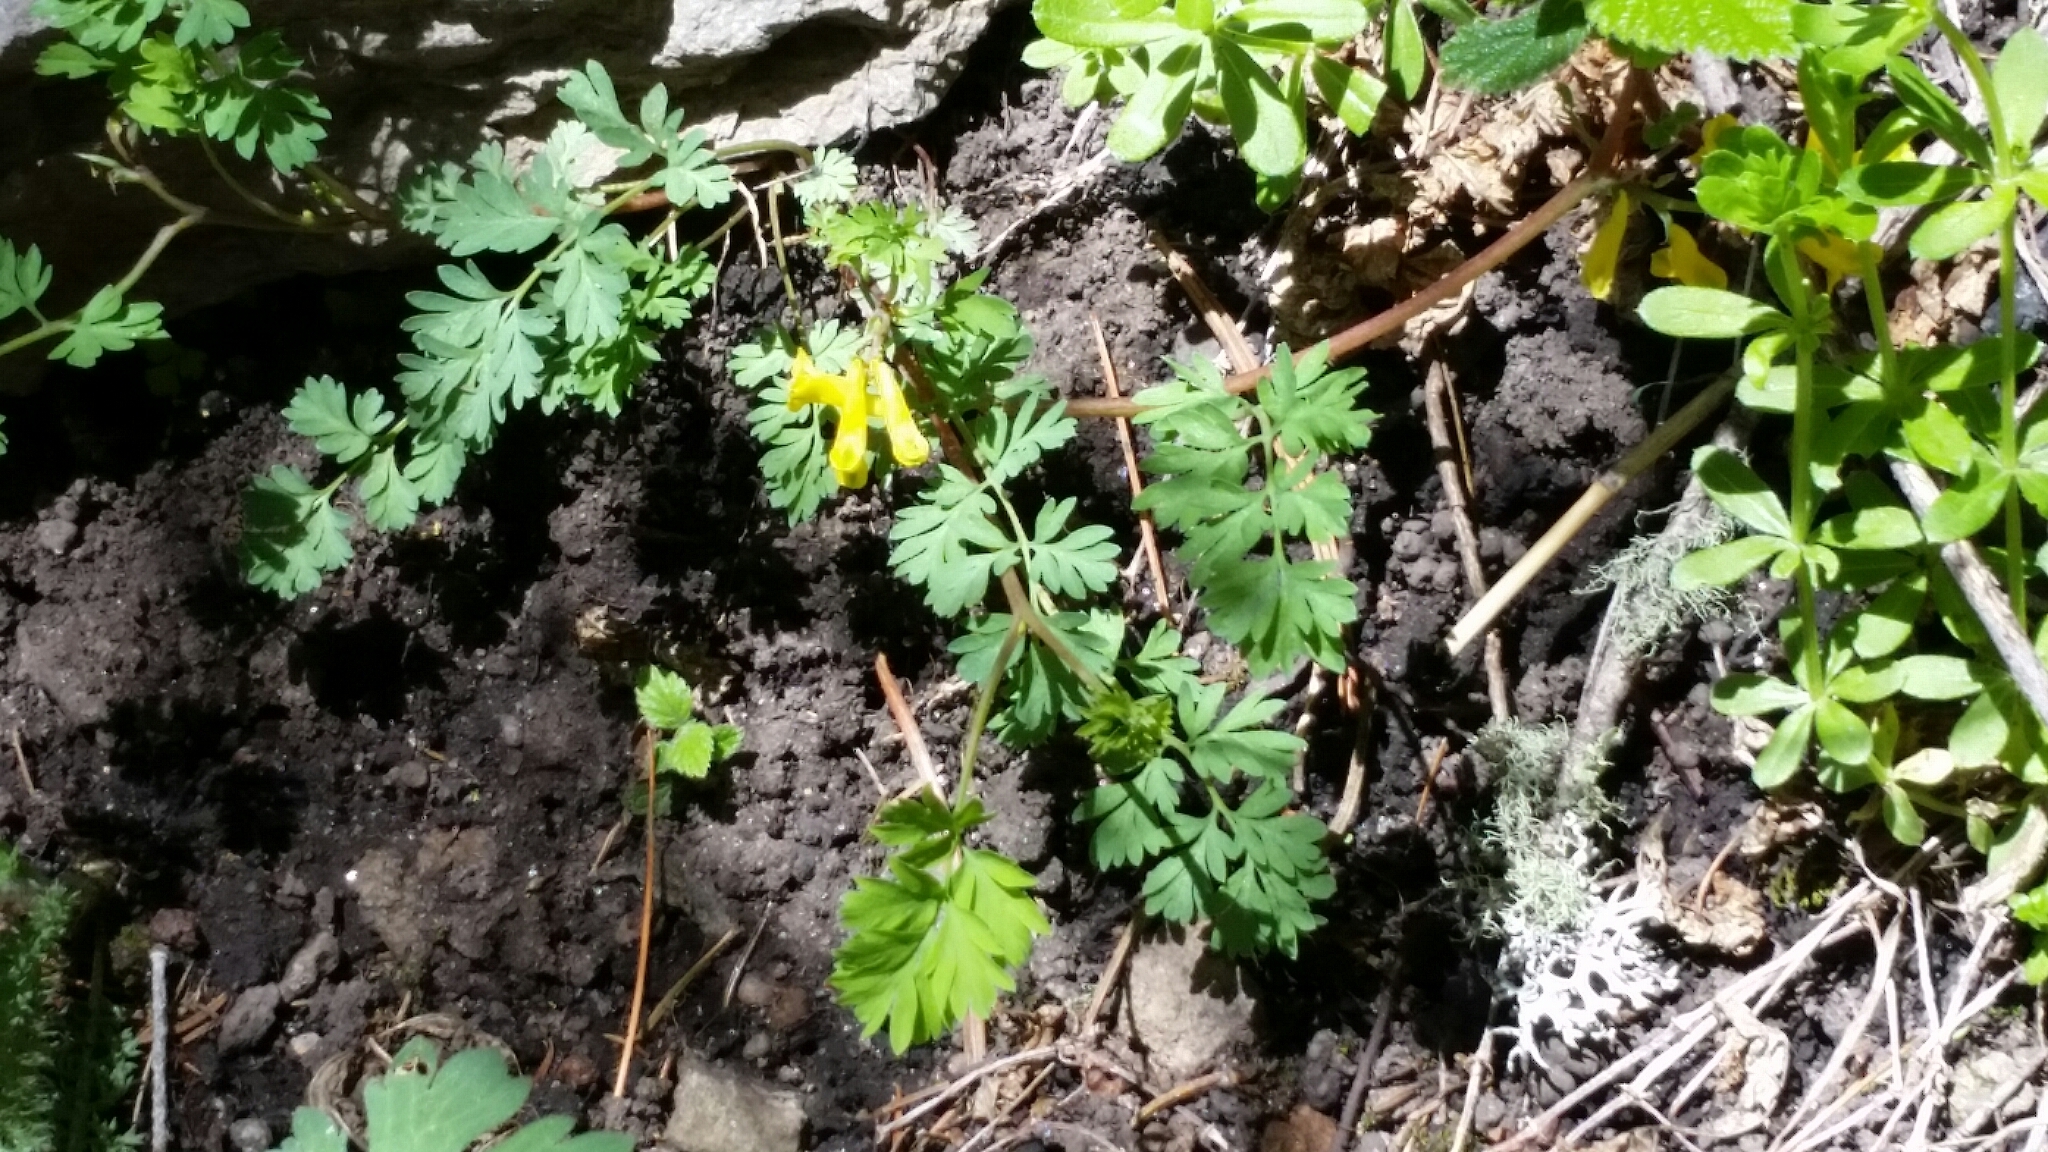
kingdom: Plantae
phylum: Tracheophyta
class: Magnoliopsida
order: Ranunculales
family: Papaveraceae
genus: Corydalis
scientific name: Corydalis aurea
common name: Golden corydalis
